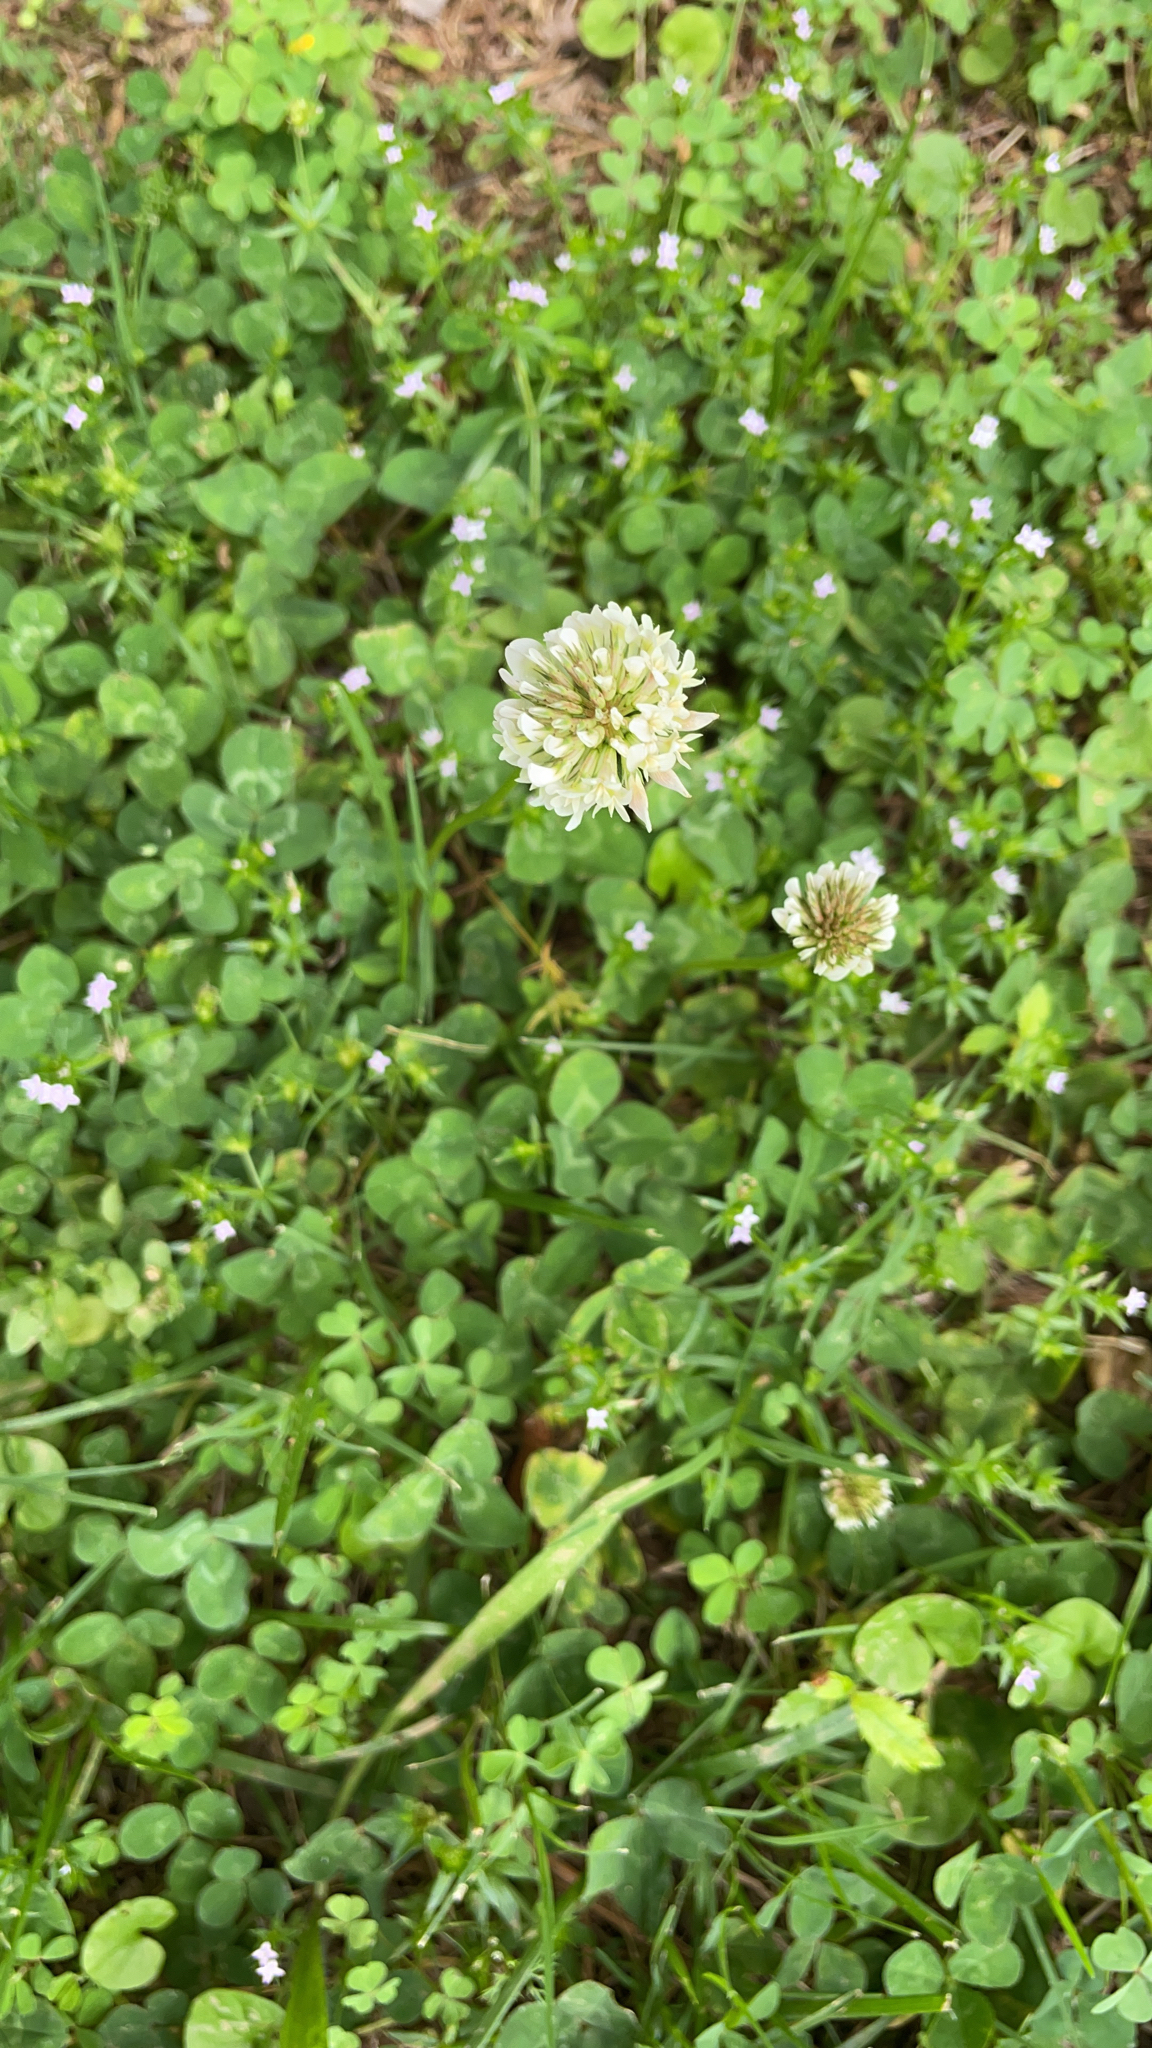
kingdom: Plantae
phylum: Tracheophyta
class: Magnoliopsida
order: Fabales
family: Fabaceae
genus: Trifolium
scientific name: Trifolium repens
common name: White clover
